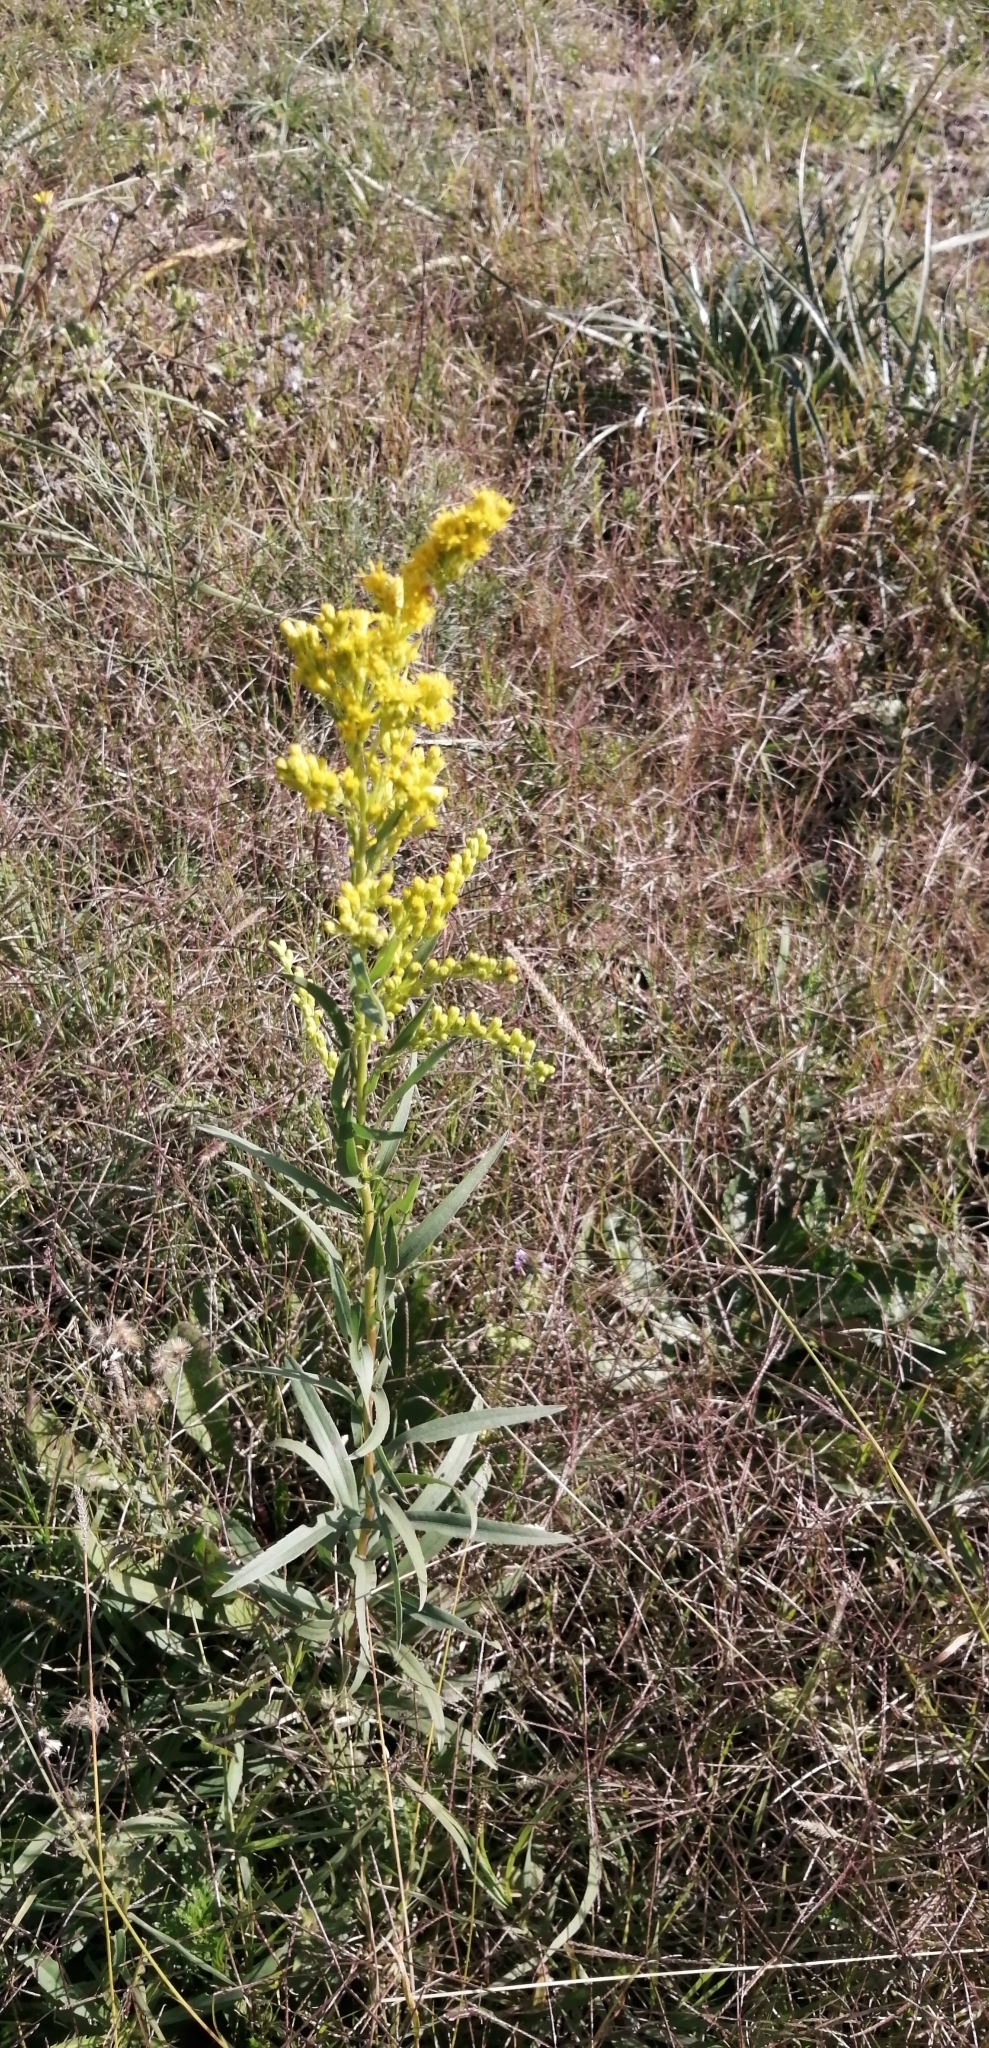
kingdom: Plantae
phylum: Tracheophyta
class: Magnoliopsida
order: Asterales
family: Asteraceae
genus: Solidago
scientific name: Solidago chilensis
